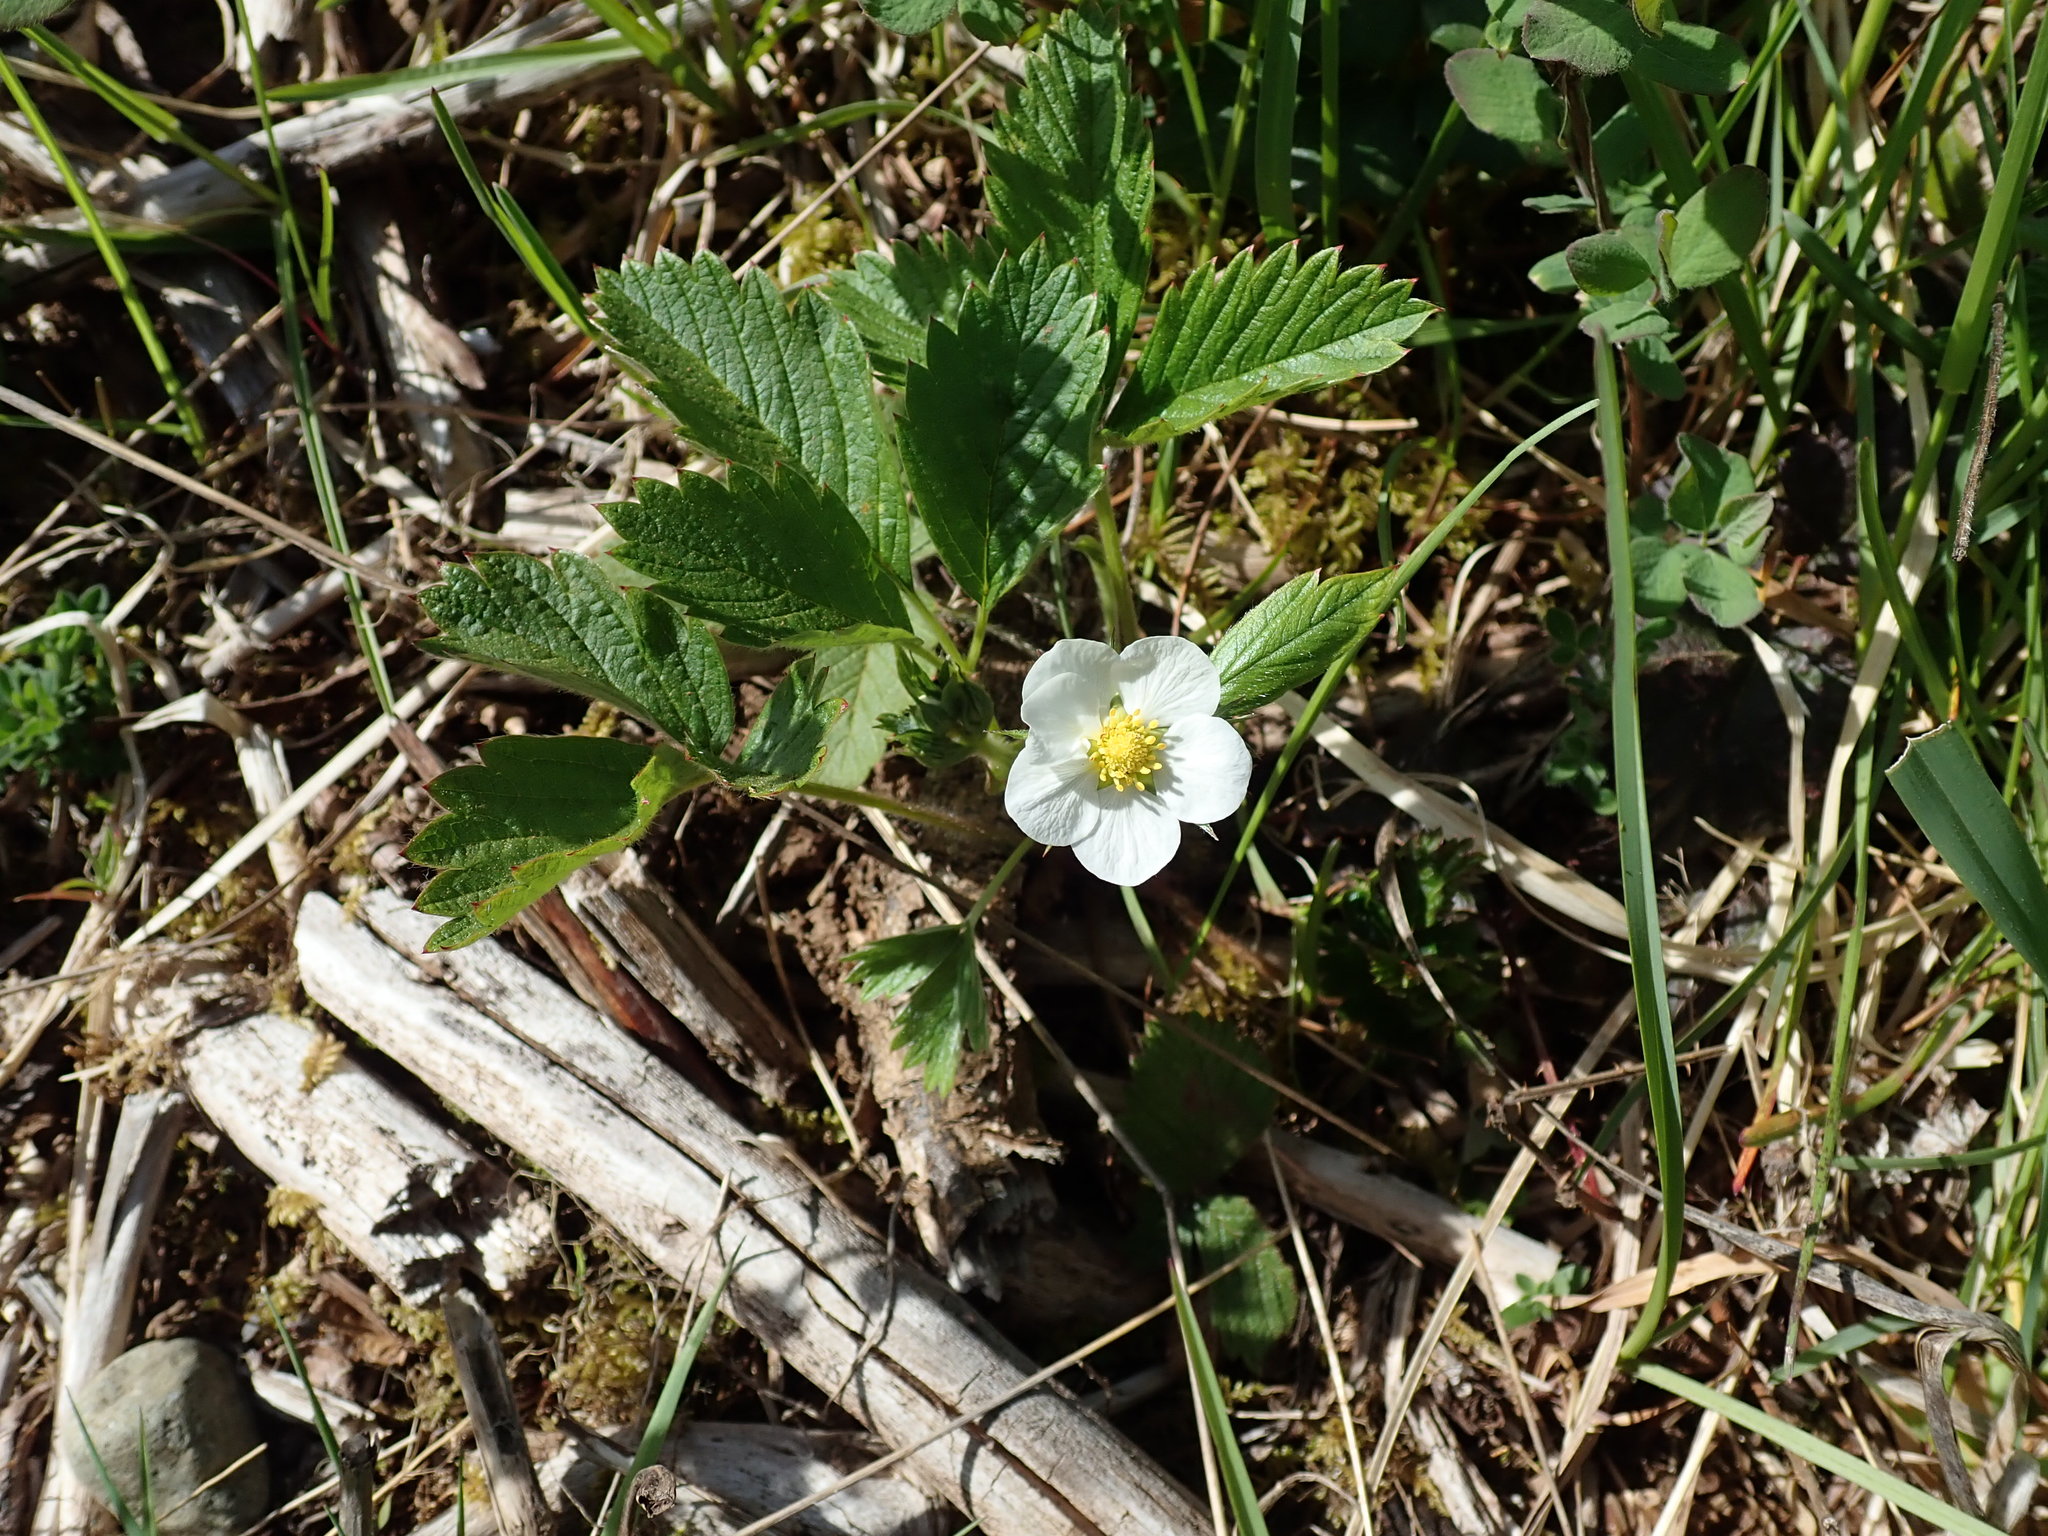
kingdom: Plantae
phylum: Tracheophyta
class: Magnoliopsida
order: Rosales
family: Rosaceae
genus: Fragaria
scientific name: Fragaria vesca
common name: Wild strawberry
